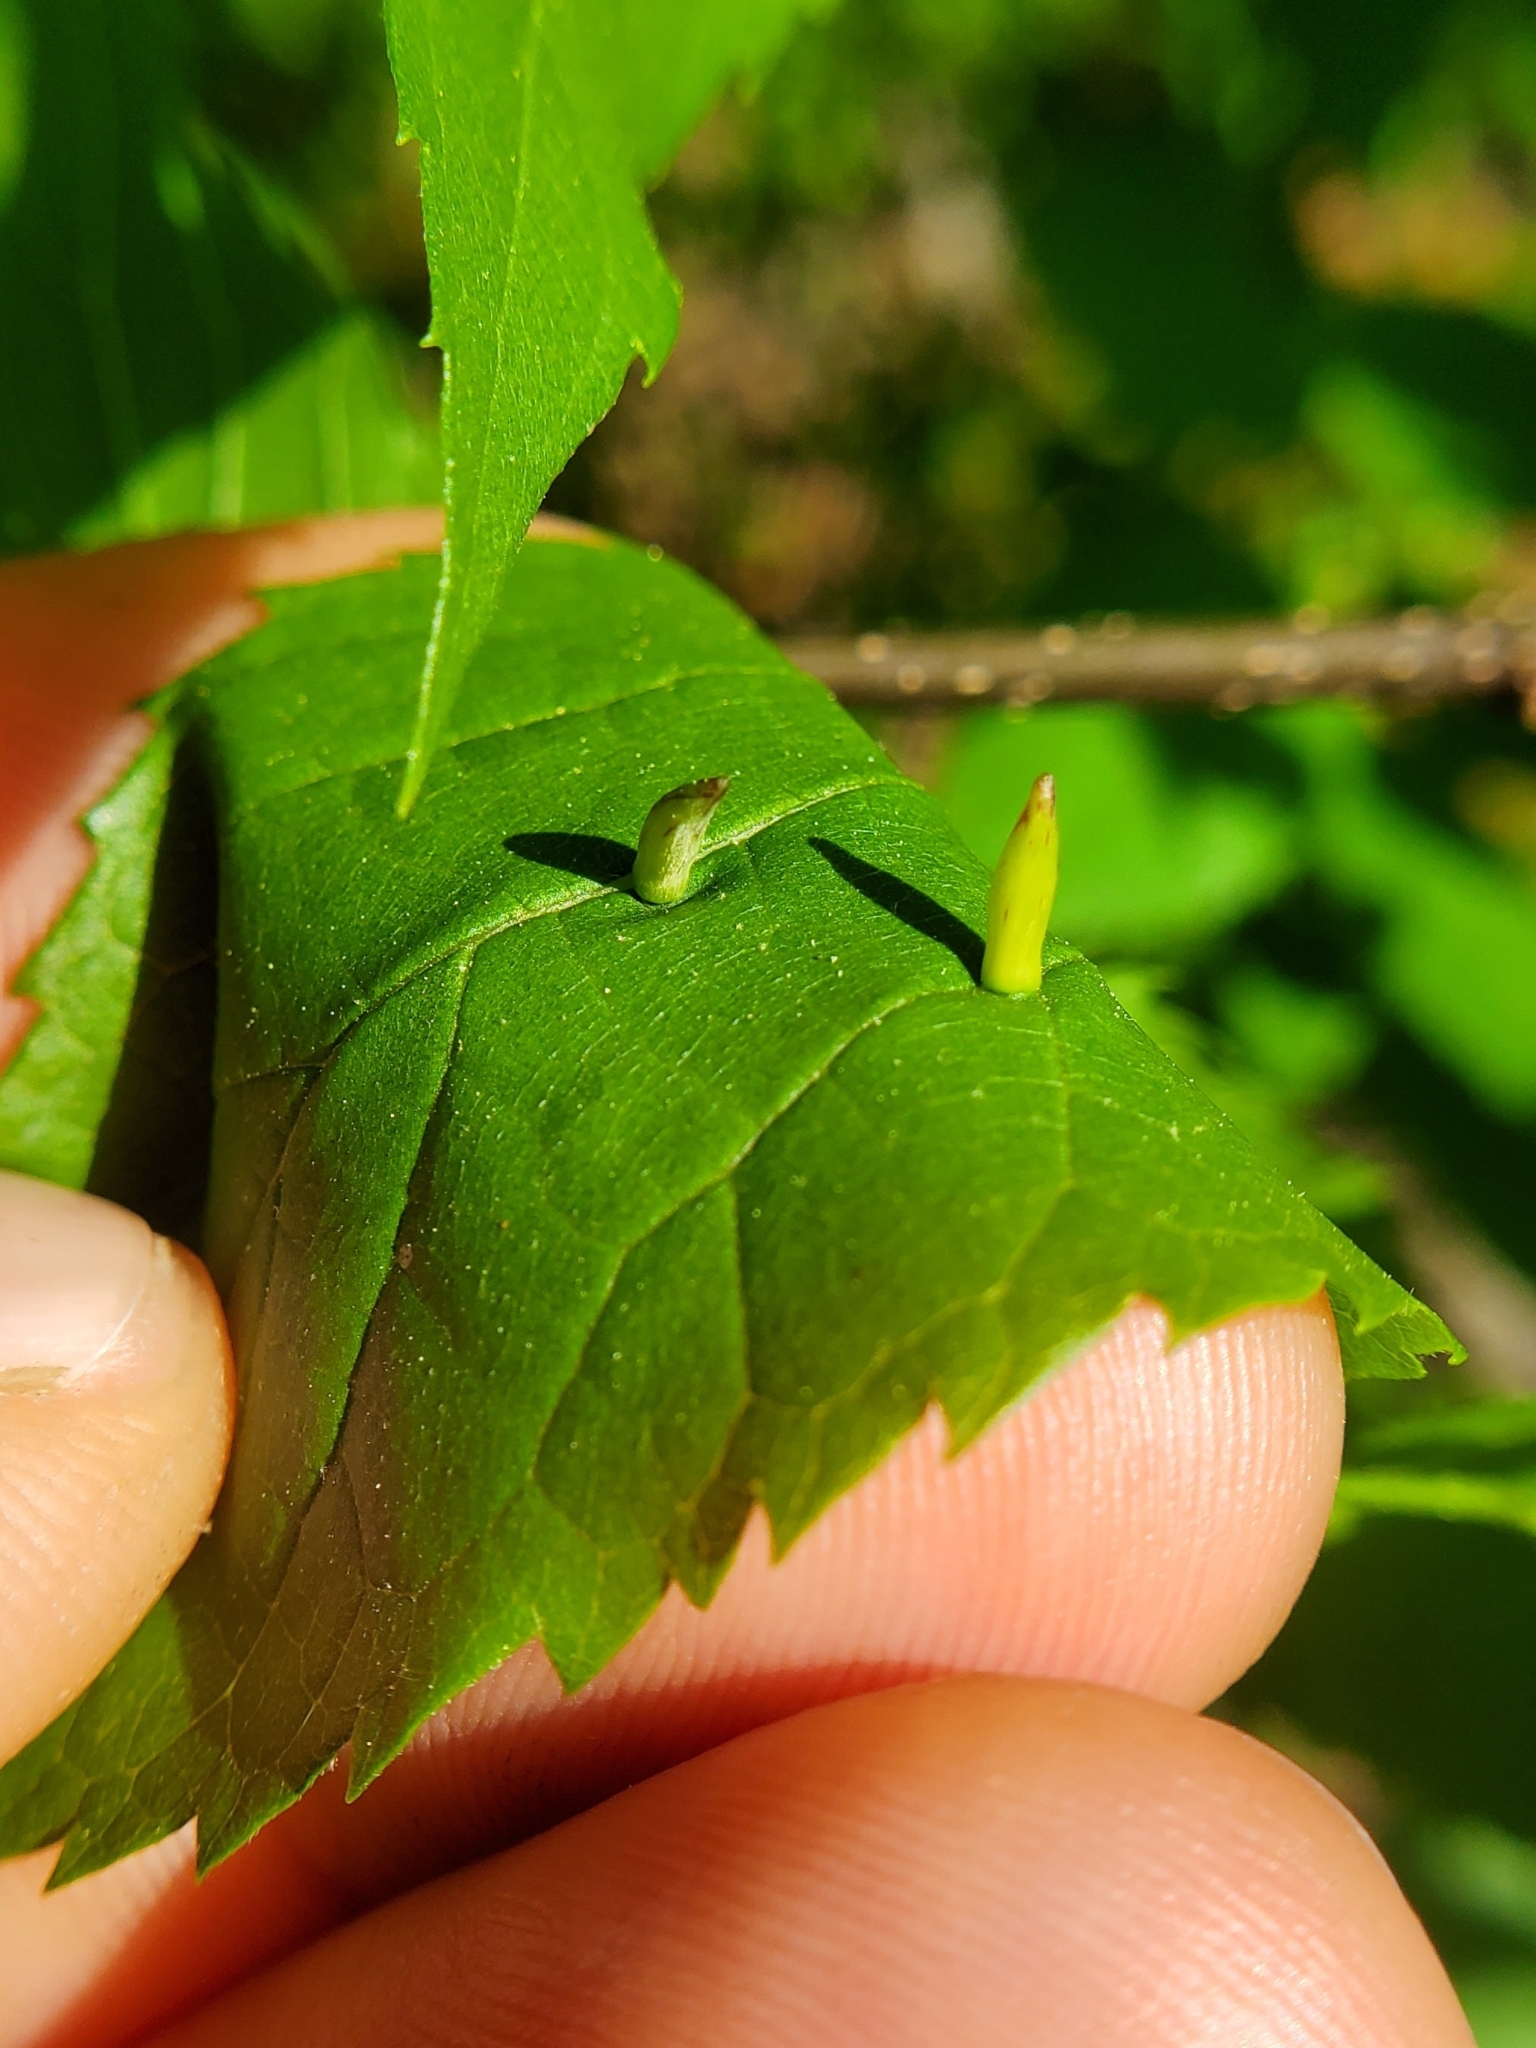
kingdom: Animalia
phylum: Arthropoda
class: Insecta
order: Diptera
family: Cecidomyiidae
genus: Celticecis
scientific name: Celticecis
